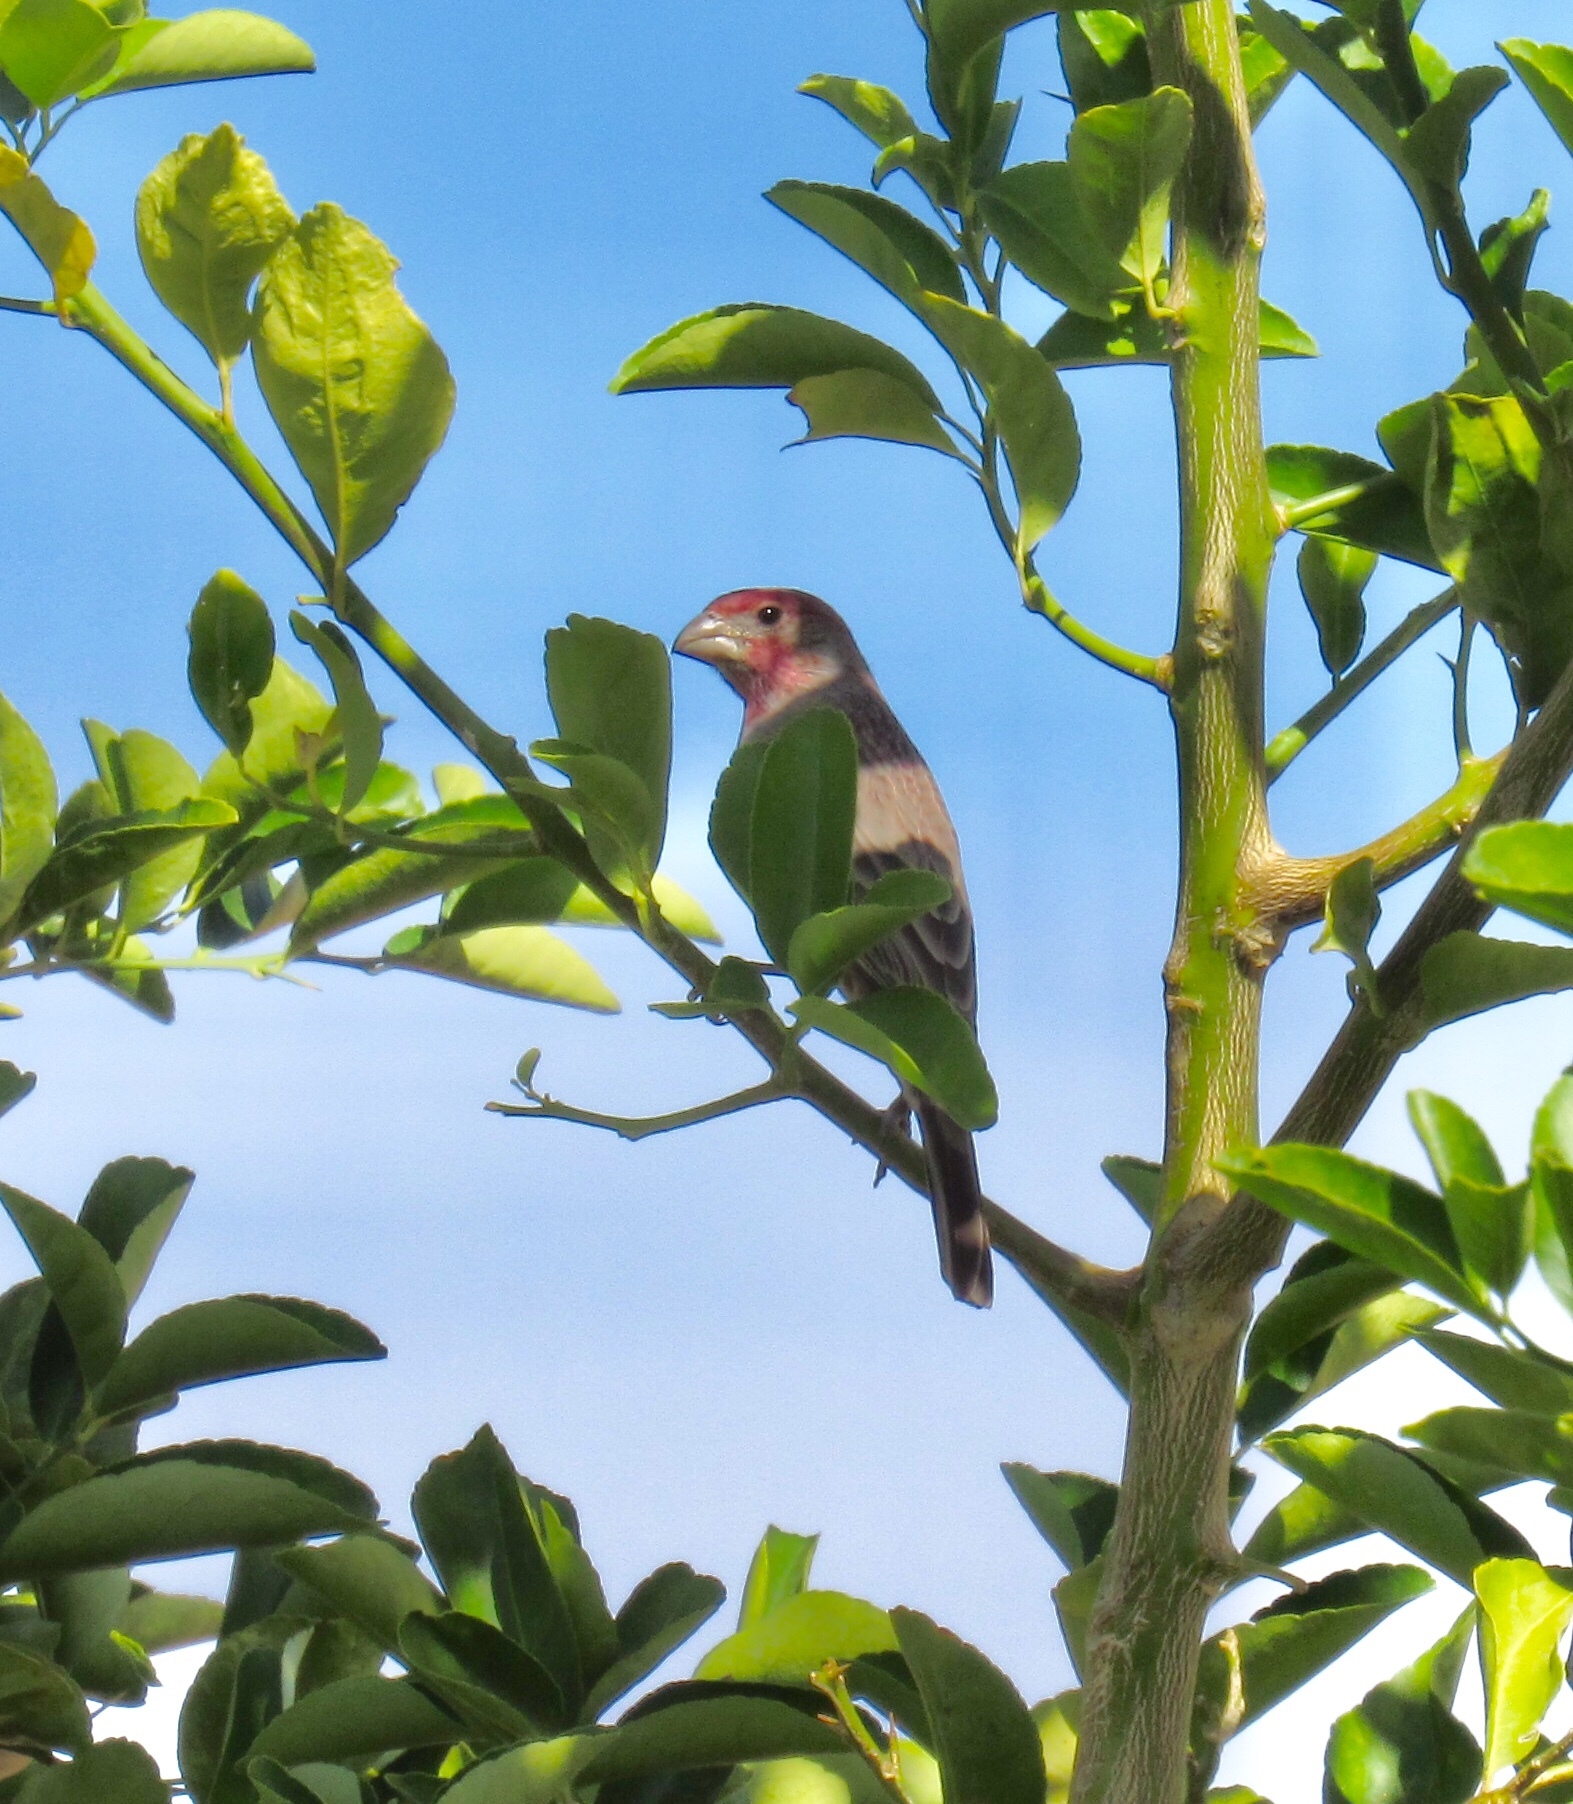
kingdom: Animalia
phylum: Chordata
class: Aves
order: Passeriformes
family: Fringillidae
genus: Haemorhous
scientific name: Haemorhous mexicanus
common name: House finch
